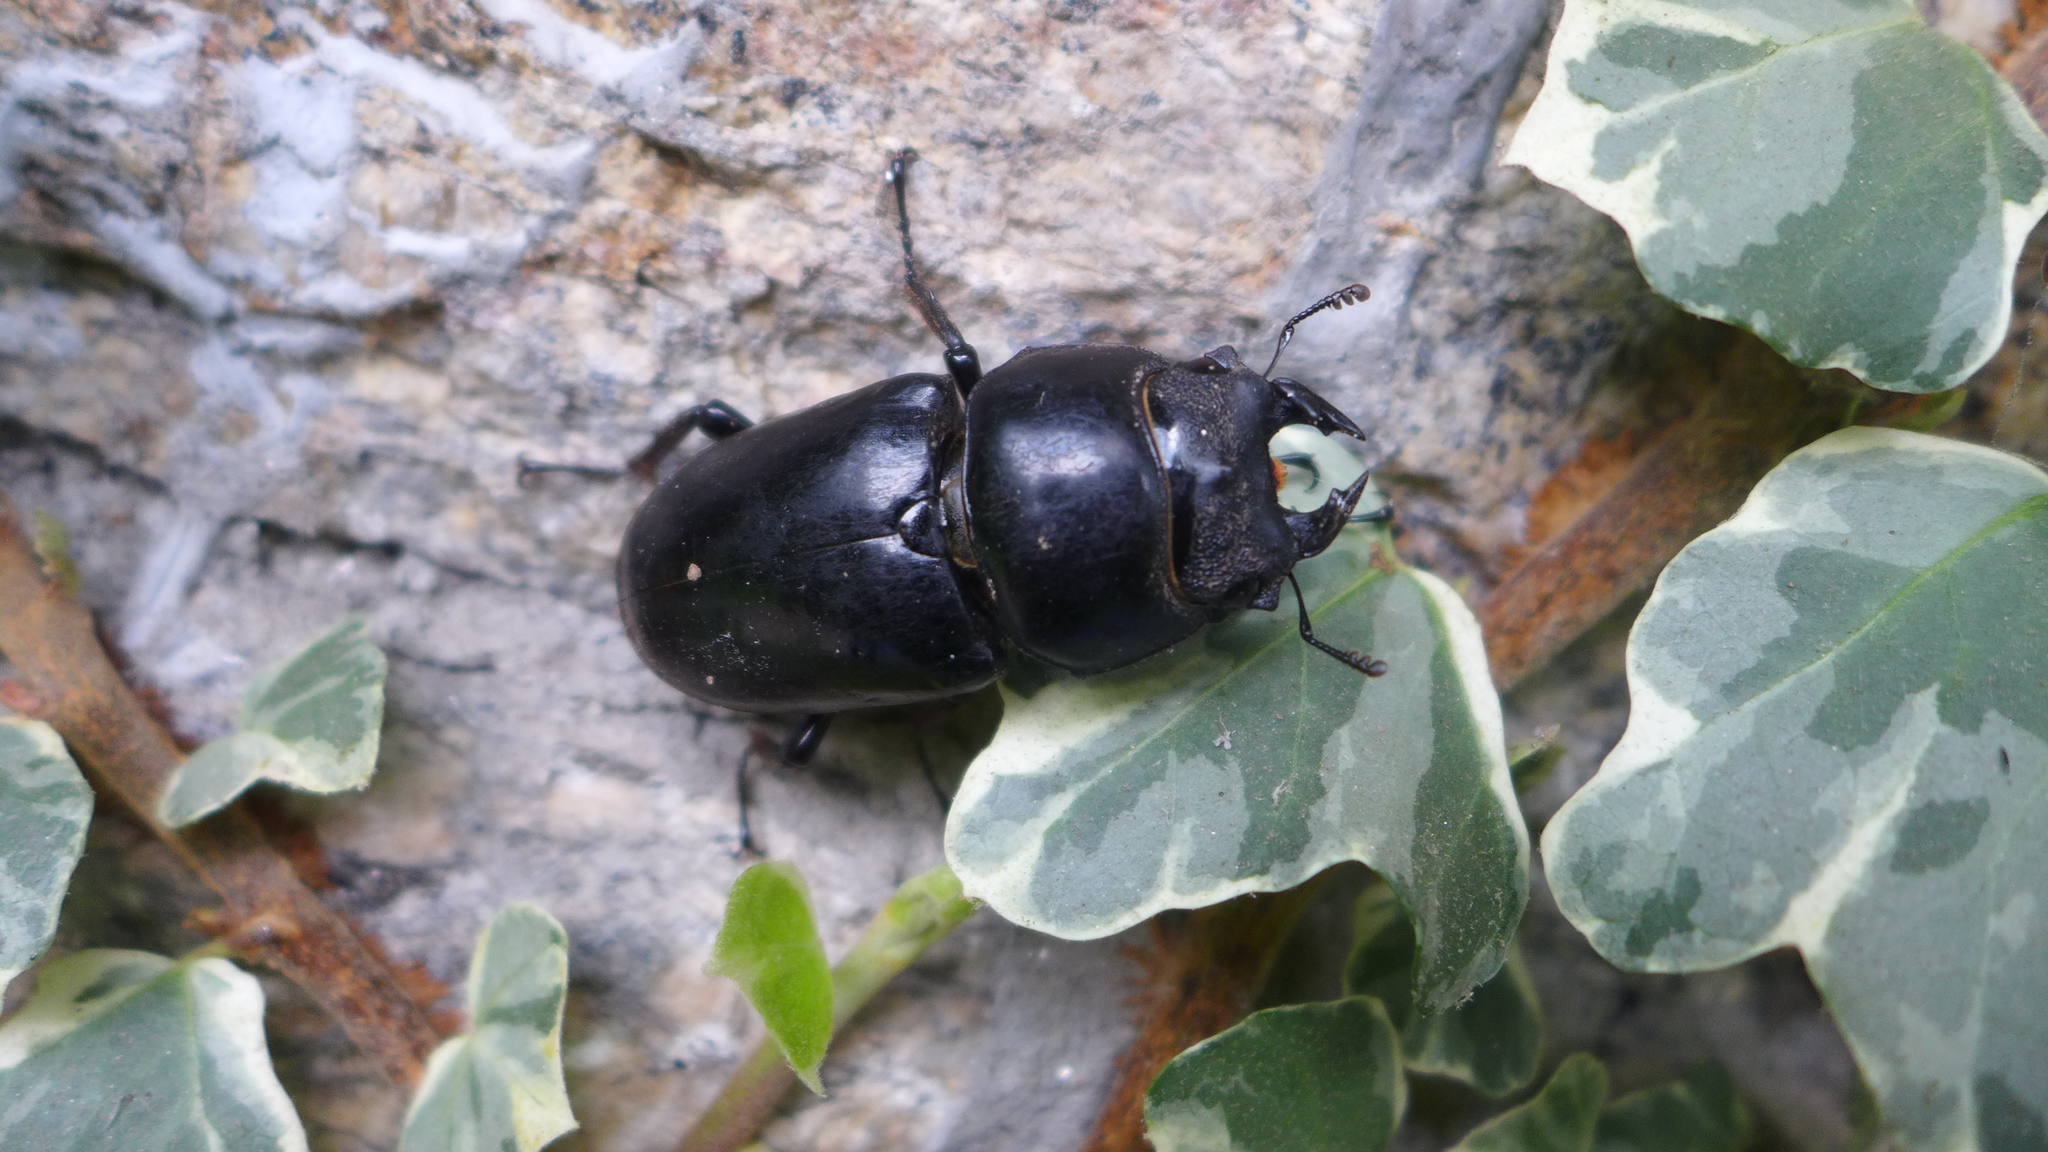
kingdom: Animalia
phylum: Arthropoda
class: Insecta
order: Coleoptera
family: Lucanidae
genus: Dorcus
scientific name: Dorcus nepalensis
